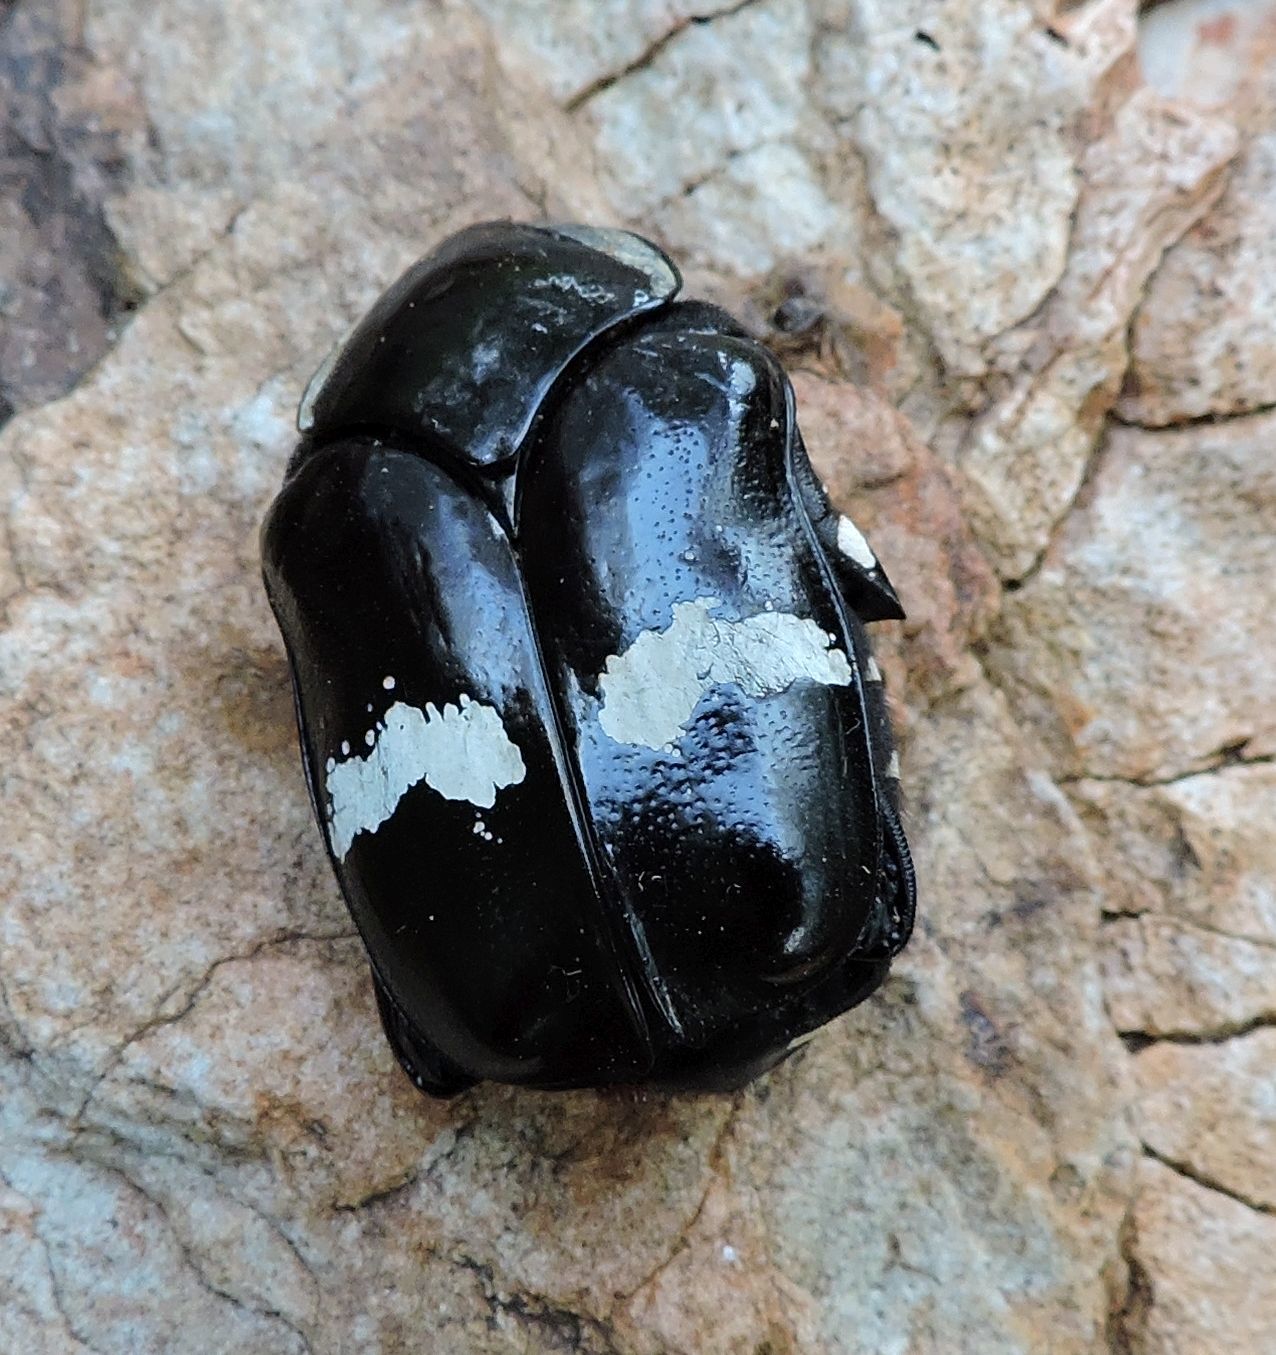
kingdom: Animalia
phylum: Arthropoda
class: Insecta
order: Coleoptera
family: Scarabaeidae
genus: Gymnetina
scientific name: Gymnetina howdeni
